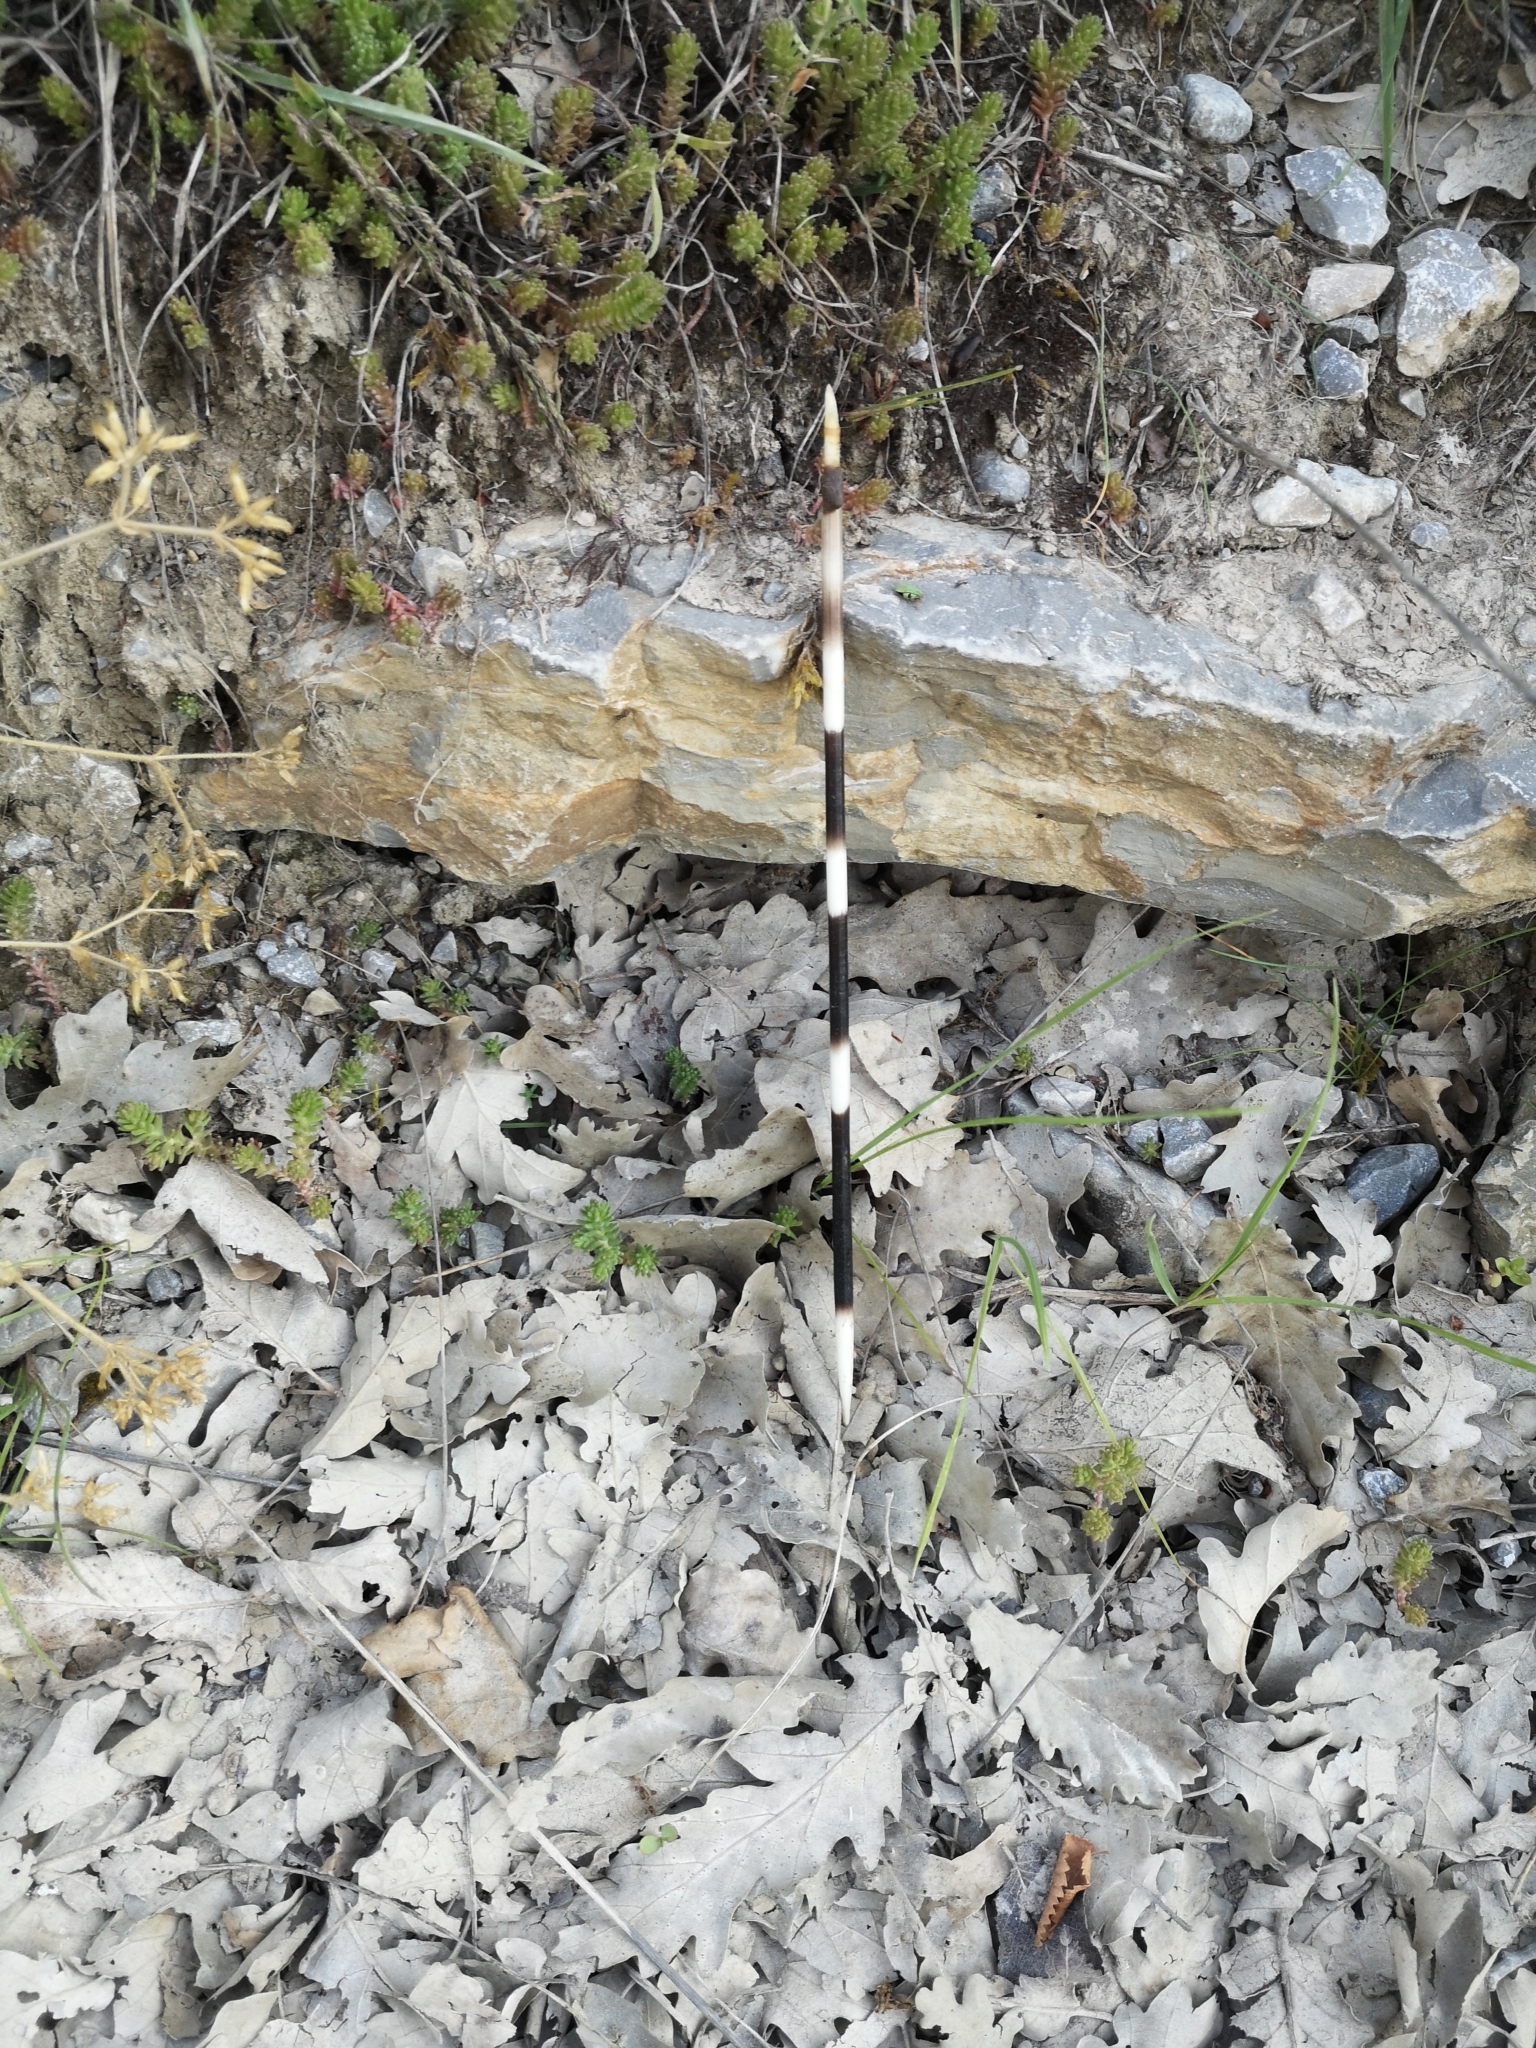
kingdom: Animalia
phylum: Chordata
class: Mammalia
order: Rodentia
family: Hystricidae
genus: Hystrix
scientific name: Hystrix cristata
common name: Crested porcupine
